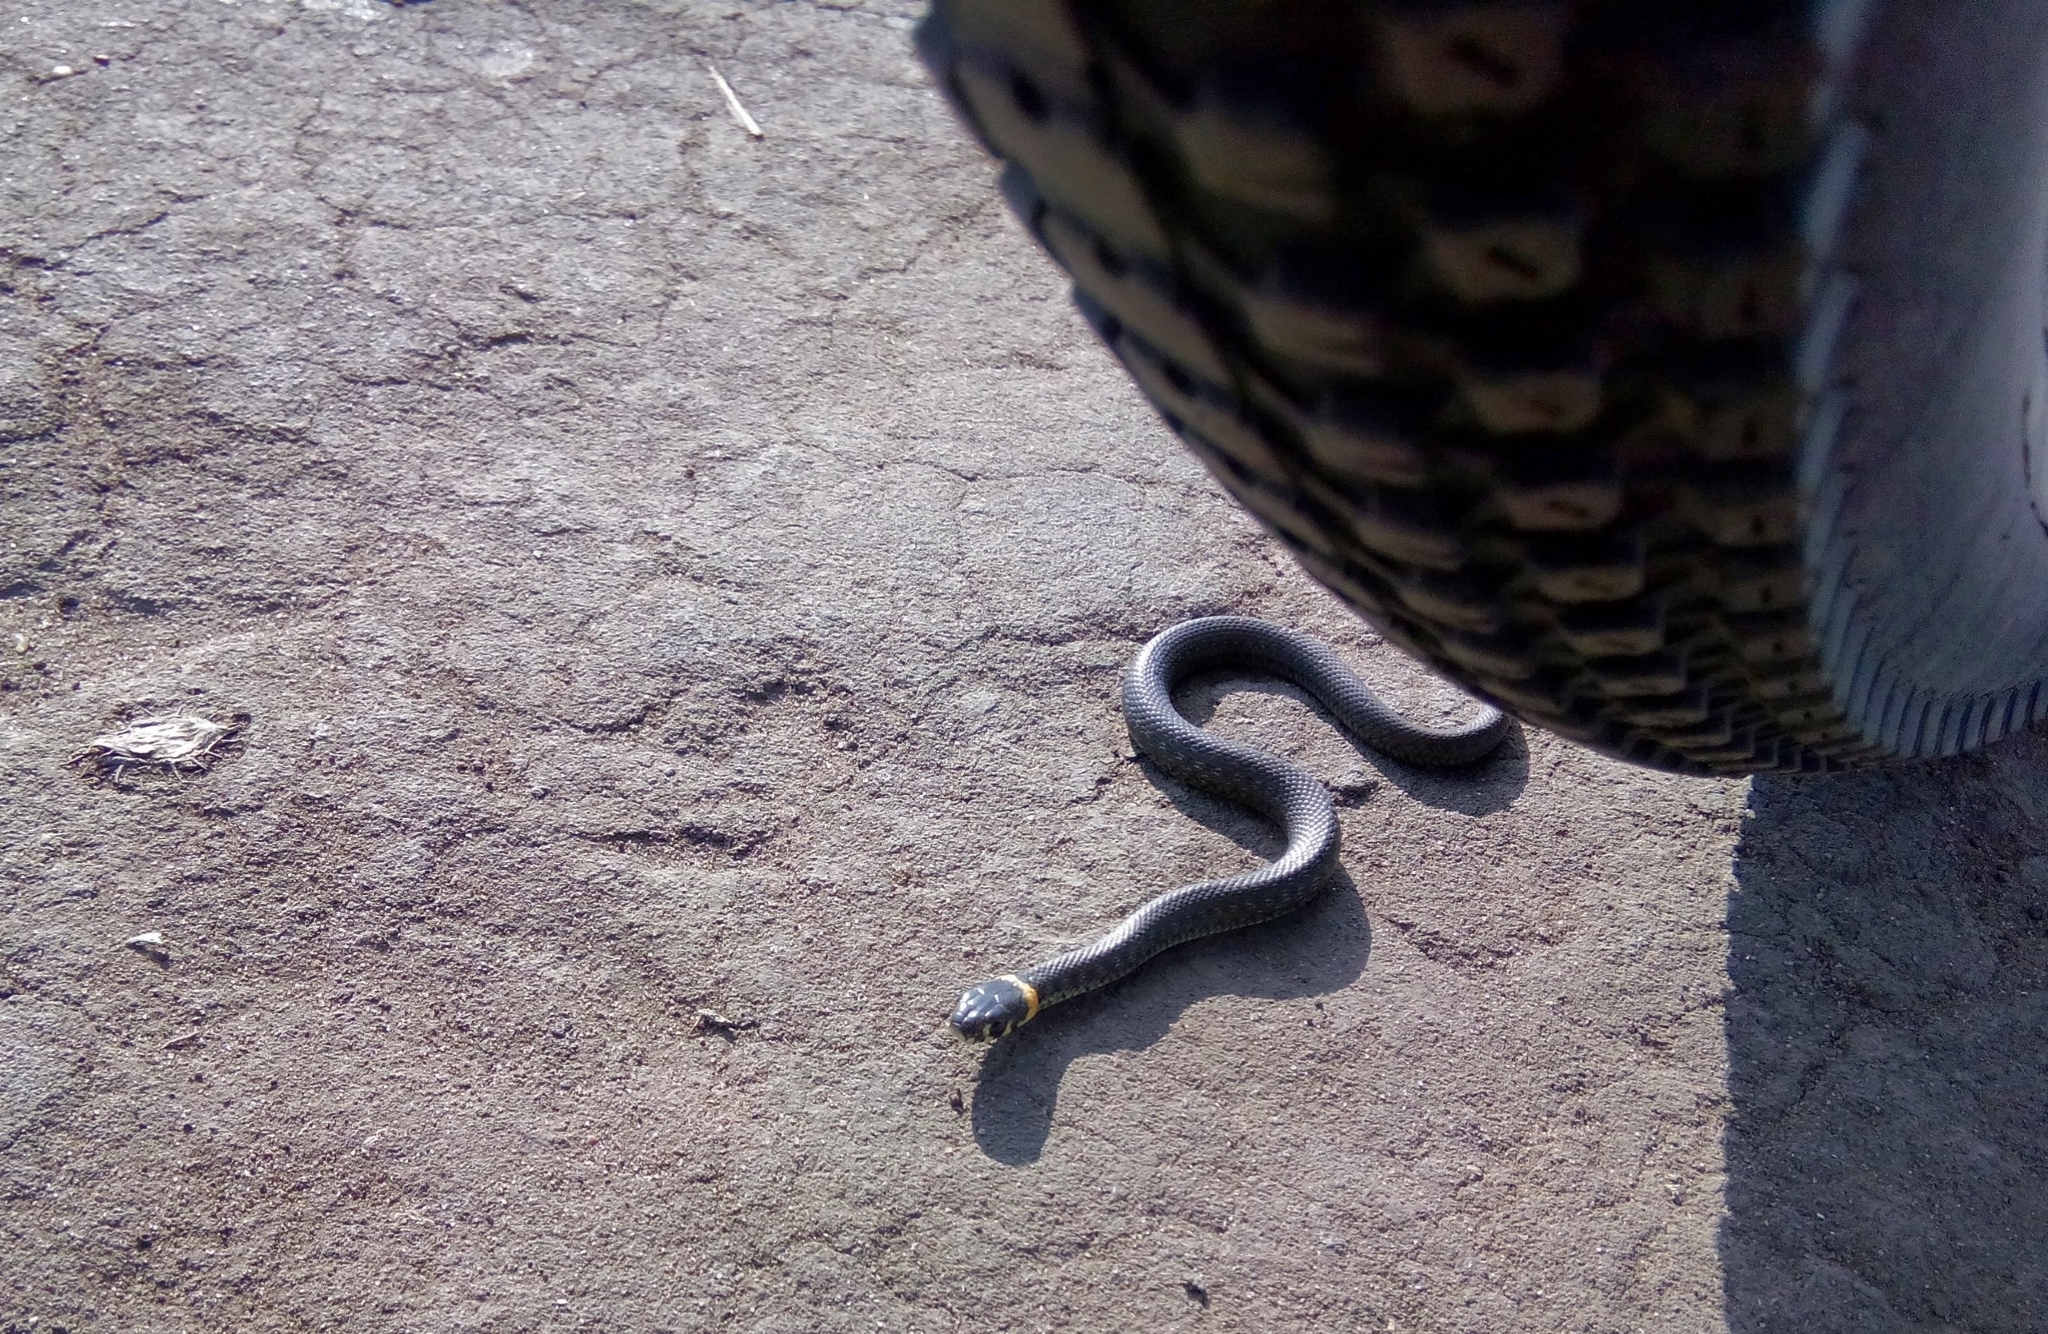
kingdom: Animalia
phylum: Chordata
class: Squamata
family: Colubridae
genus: Natrix
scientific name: Natrix natrix
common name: Grass snake
